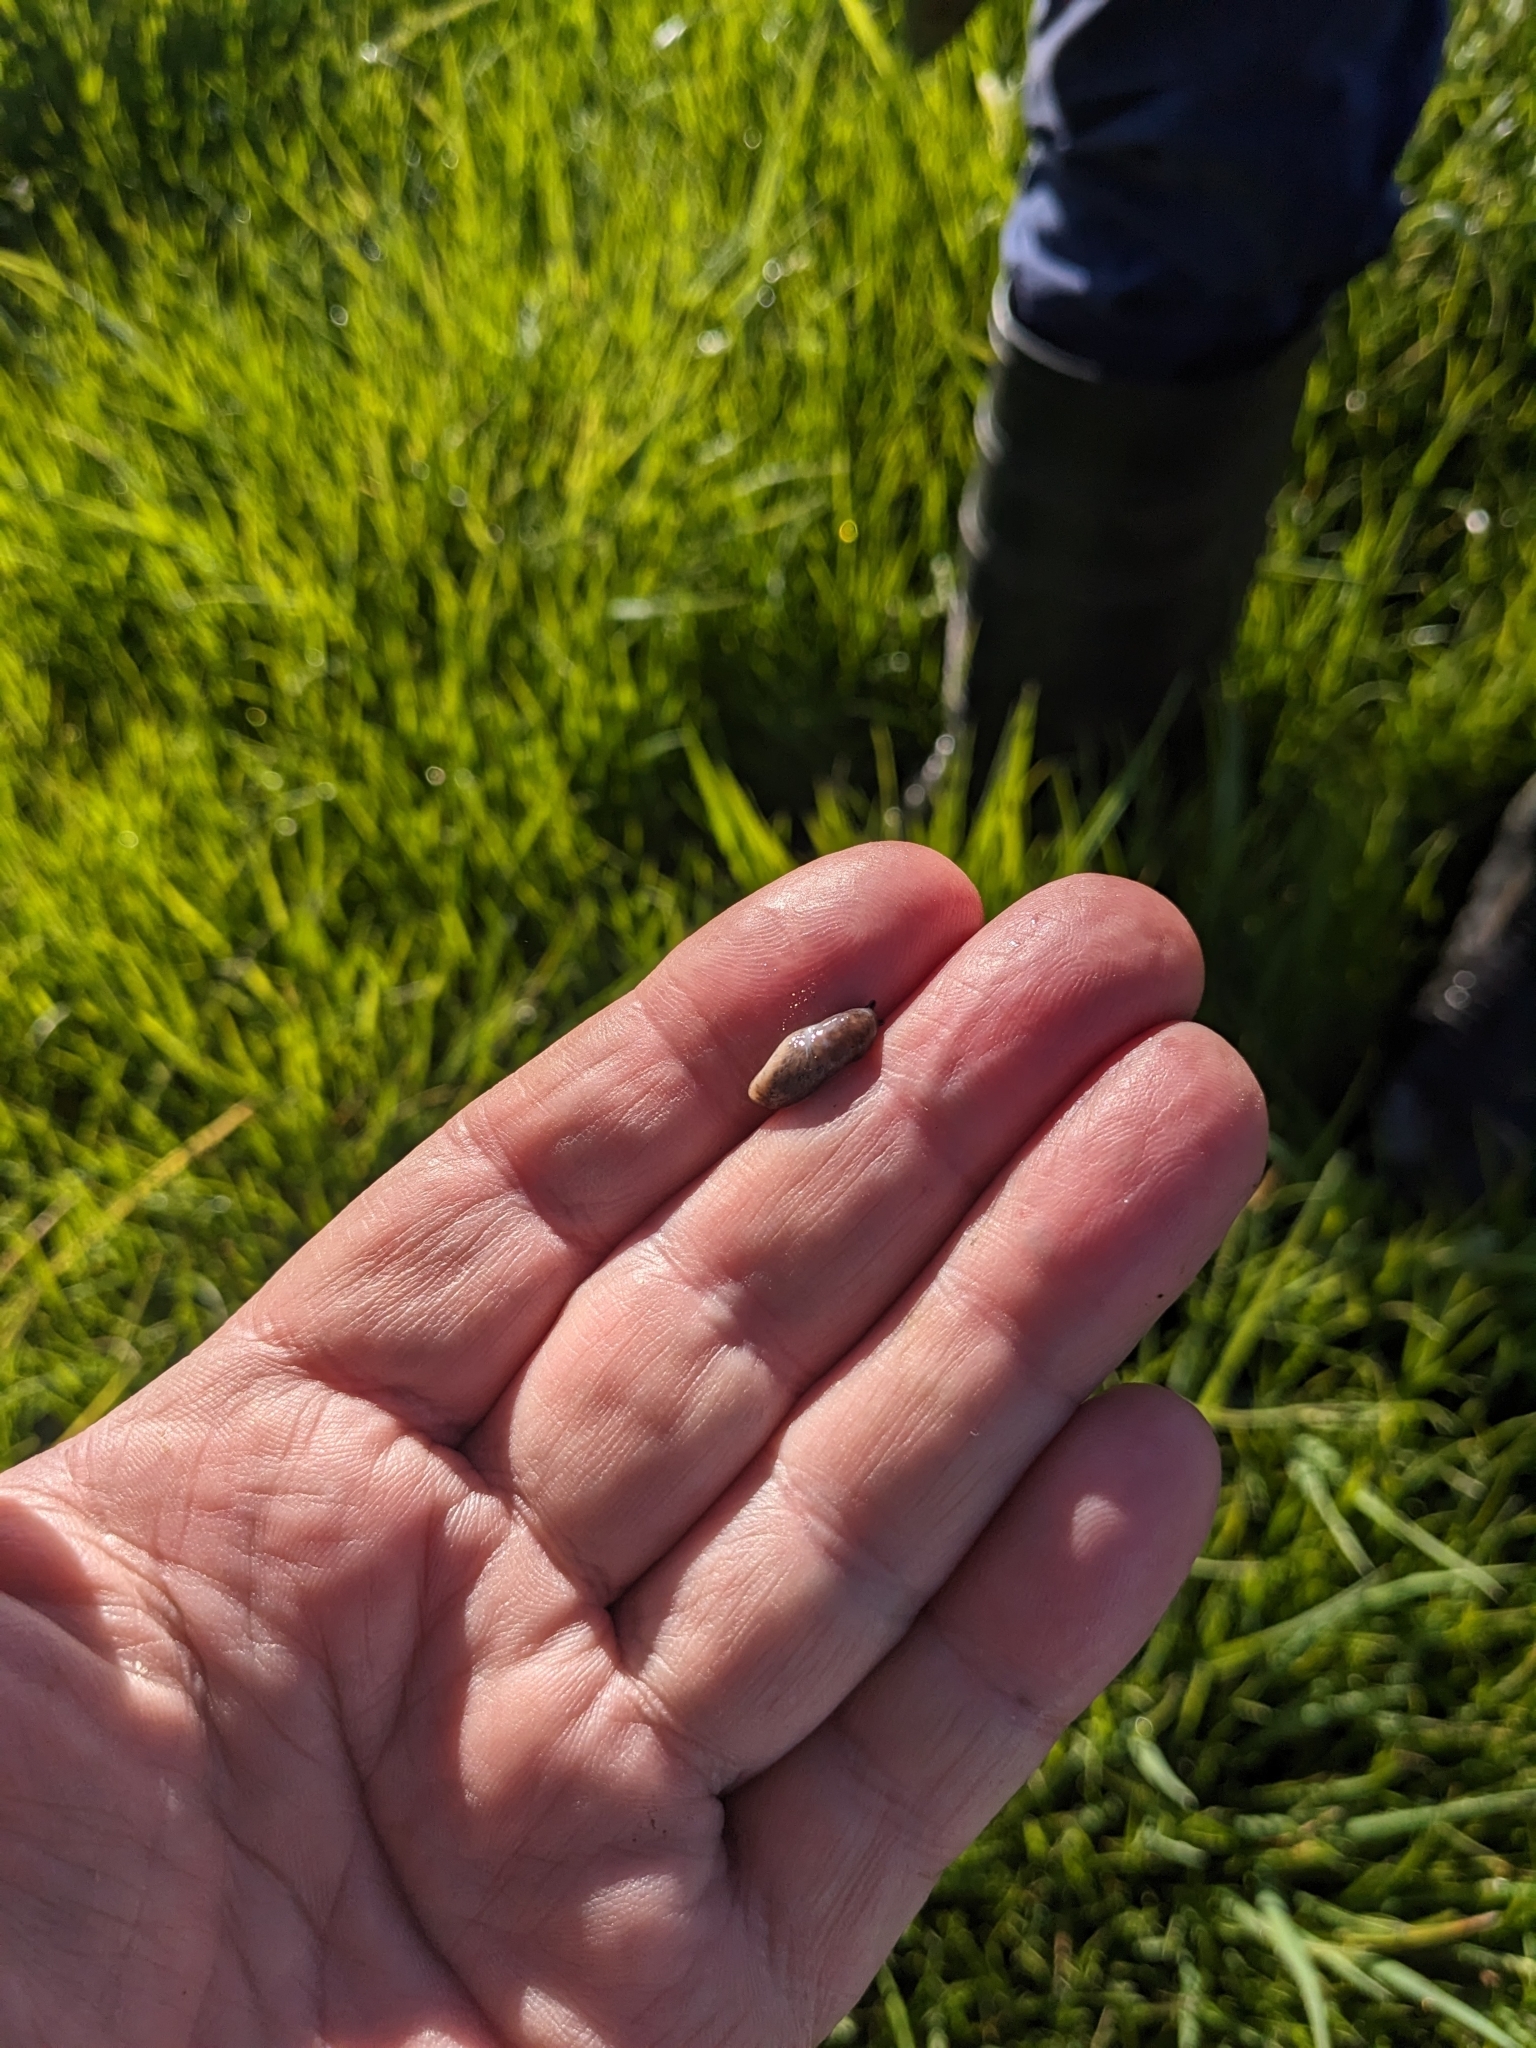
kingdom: Animalia
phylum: Mollusca
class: Gastropoda
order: Stylommatophora
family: Agriolimacidae
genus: Deroceras
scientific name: Deroceras reticulatum
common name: Gray field slug
